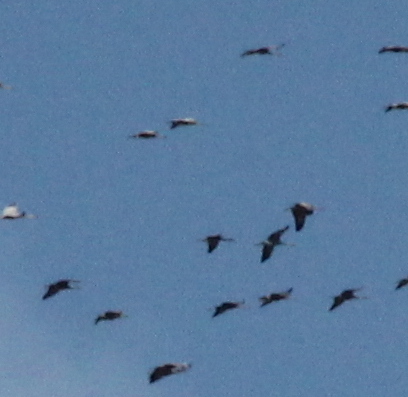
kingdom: Animalia
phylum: Chordata
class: Aves
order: Gruiformes
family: Gruidae
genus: Grus
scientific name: Grus canadensis
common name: Sandhill crane
